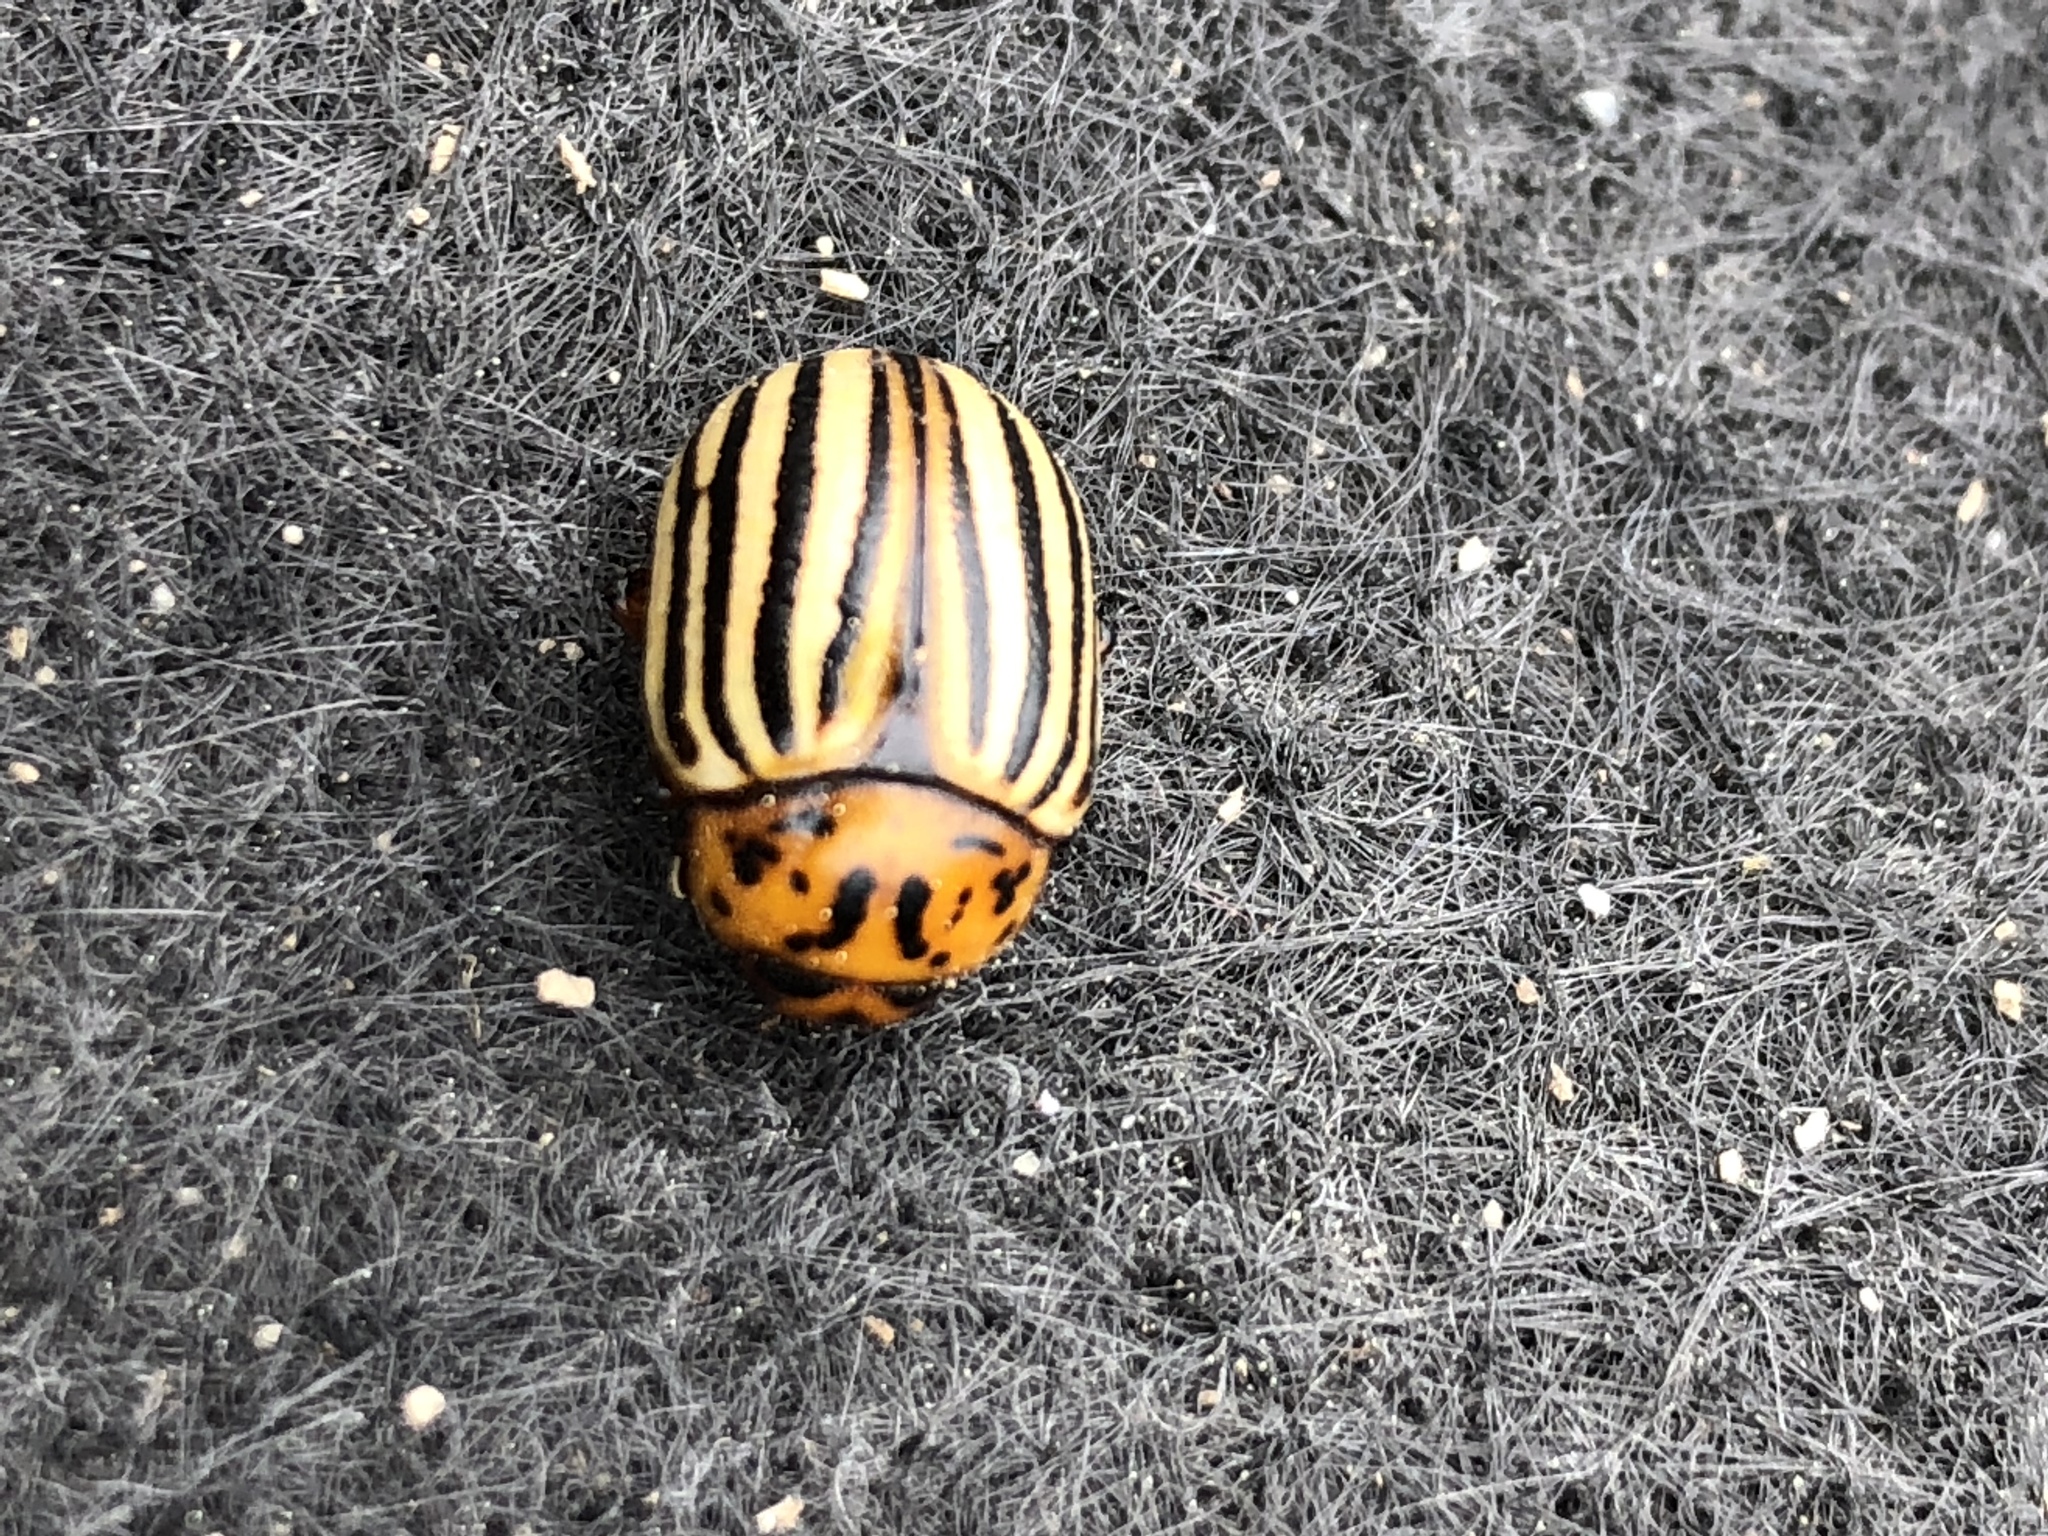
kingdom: Animalia
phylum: Arthropoda
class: Insecta
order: Coleoptera
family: Chrysomelidae
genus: Leptinotarsa
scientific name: Leptinotarsa decemlineata
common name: Colorado potato beetle
